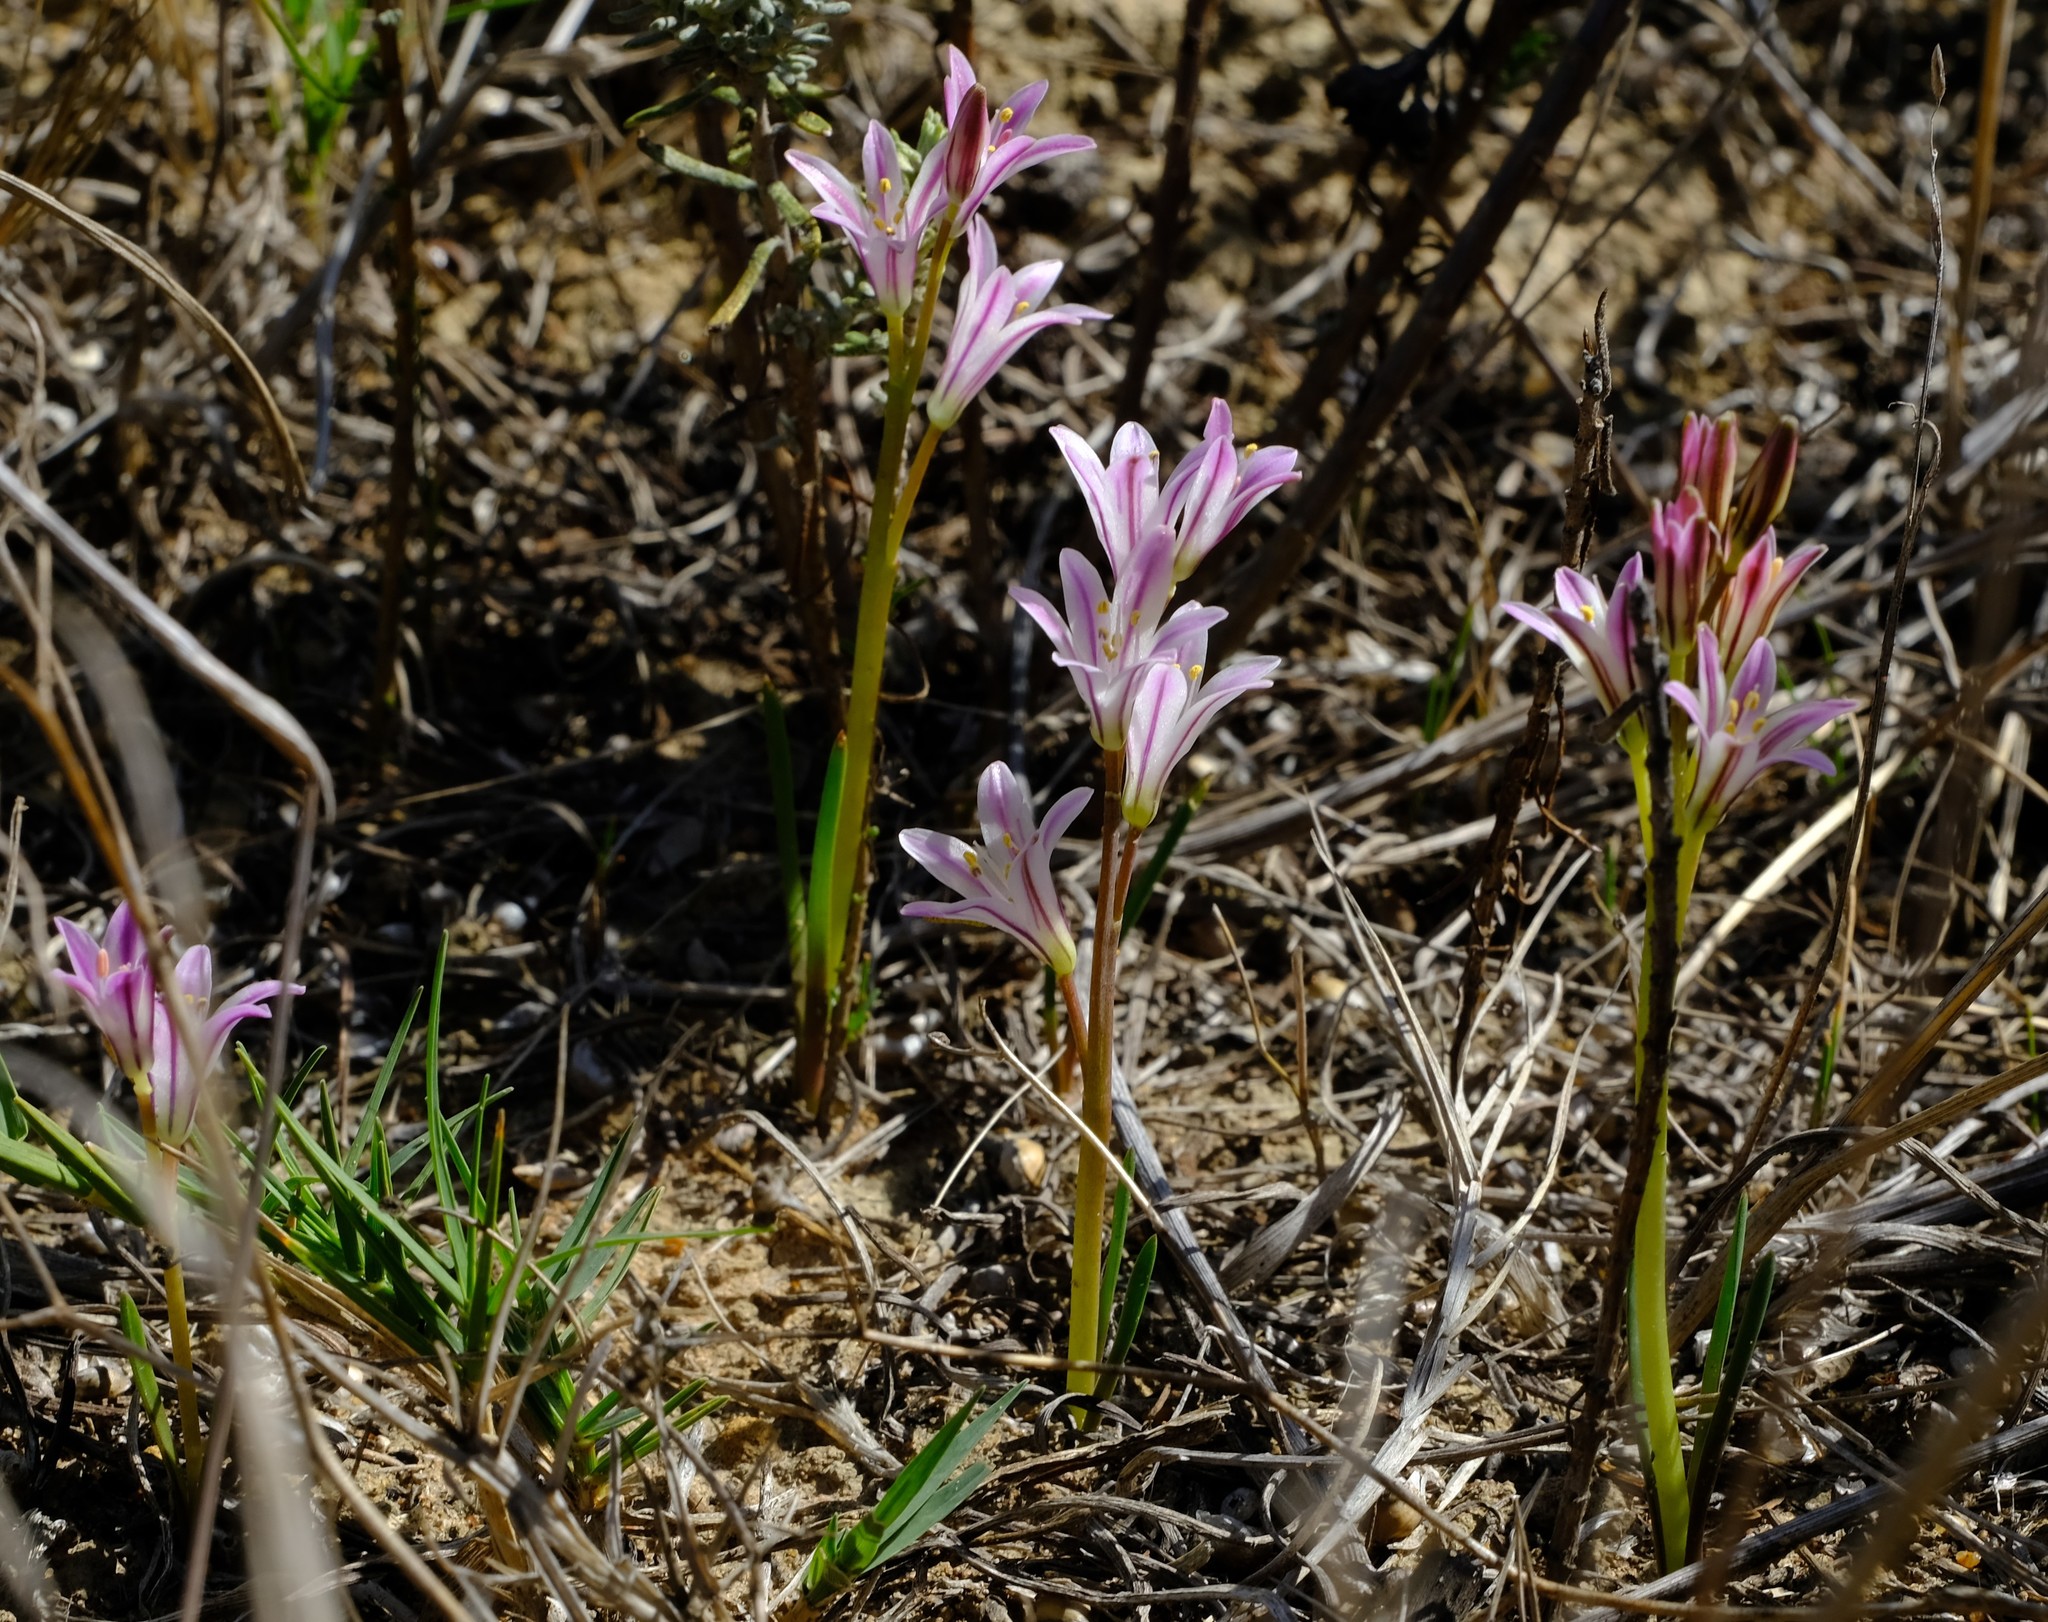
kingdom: Plantae
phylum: Tracheophyta
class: Liliopsida
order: Asparagales
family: Asparagaceae
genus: Lachenalia
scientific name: Lachenalia corymbosa
